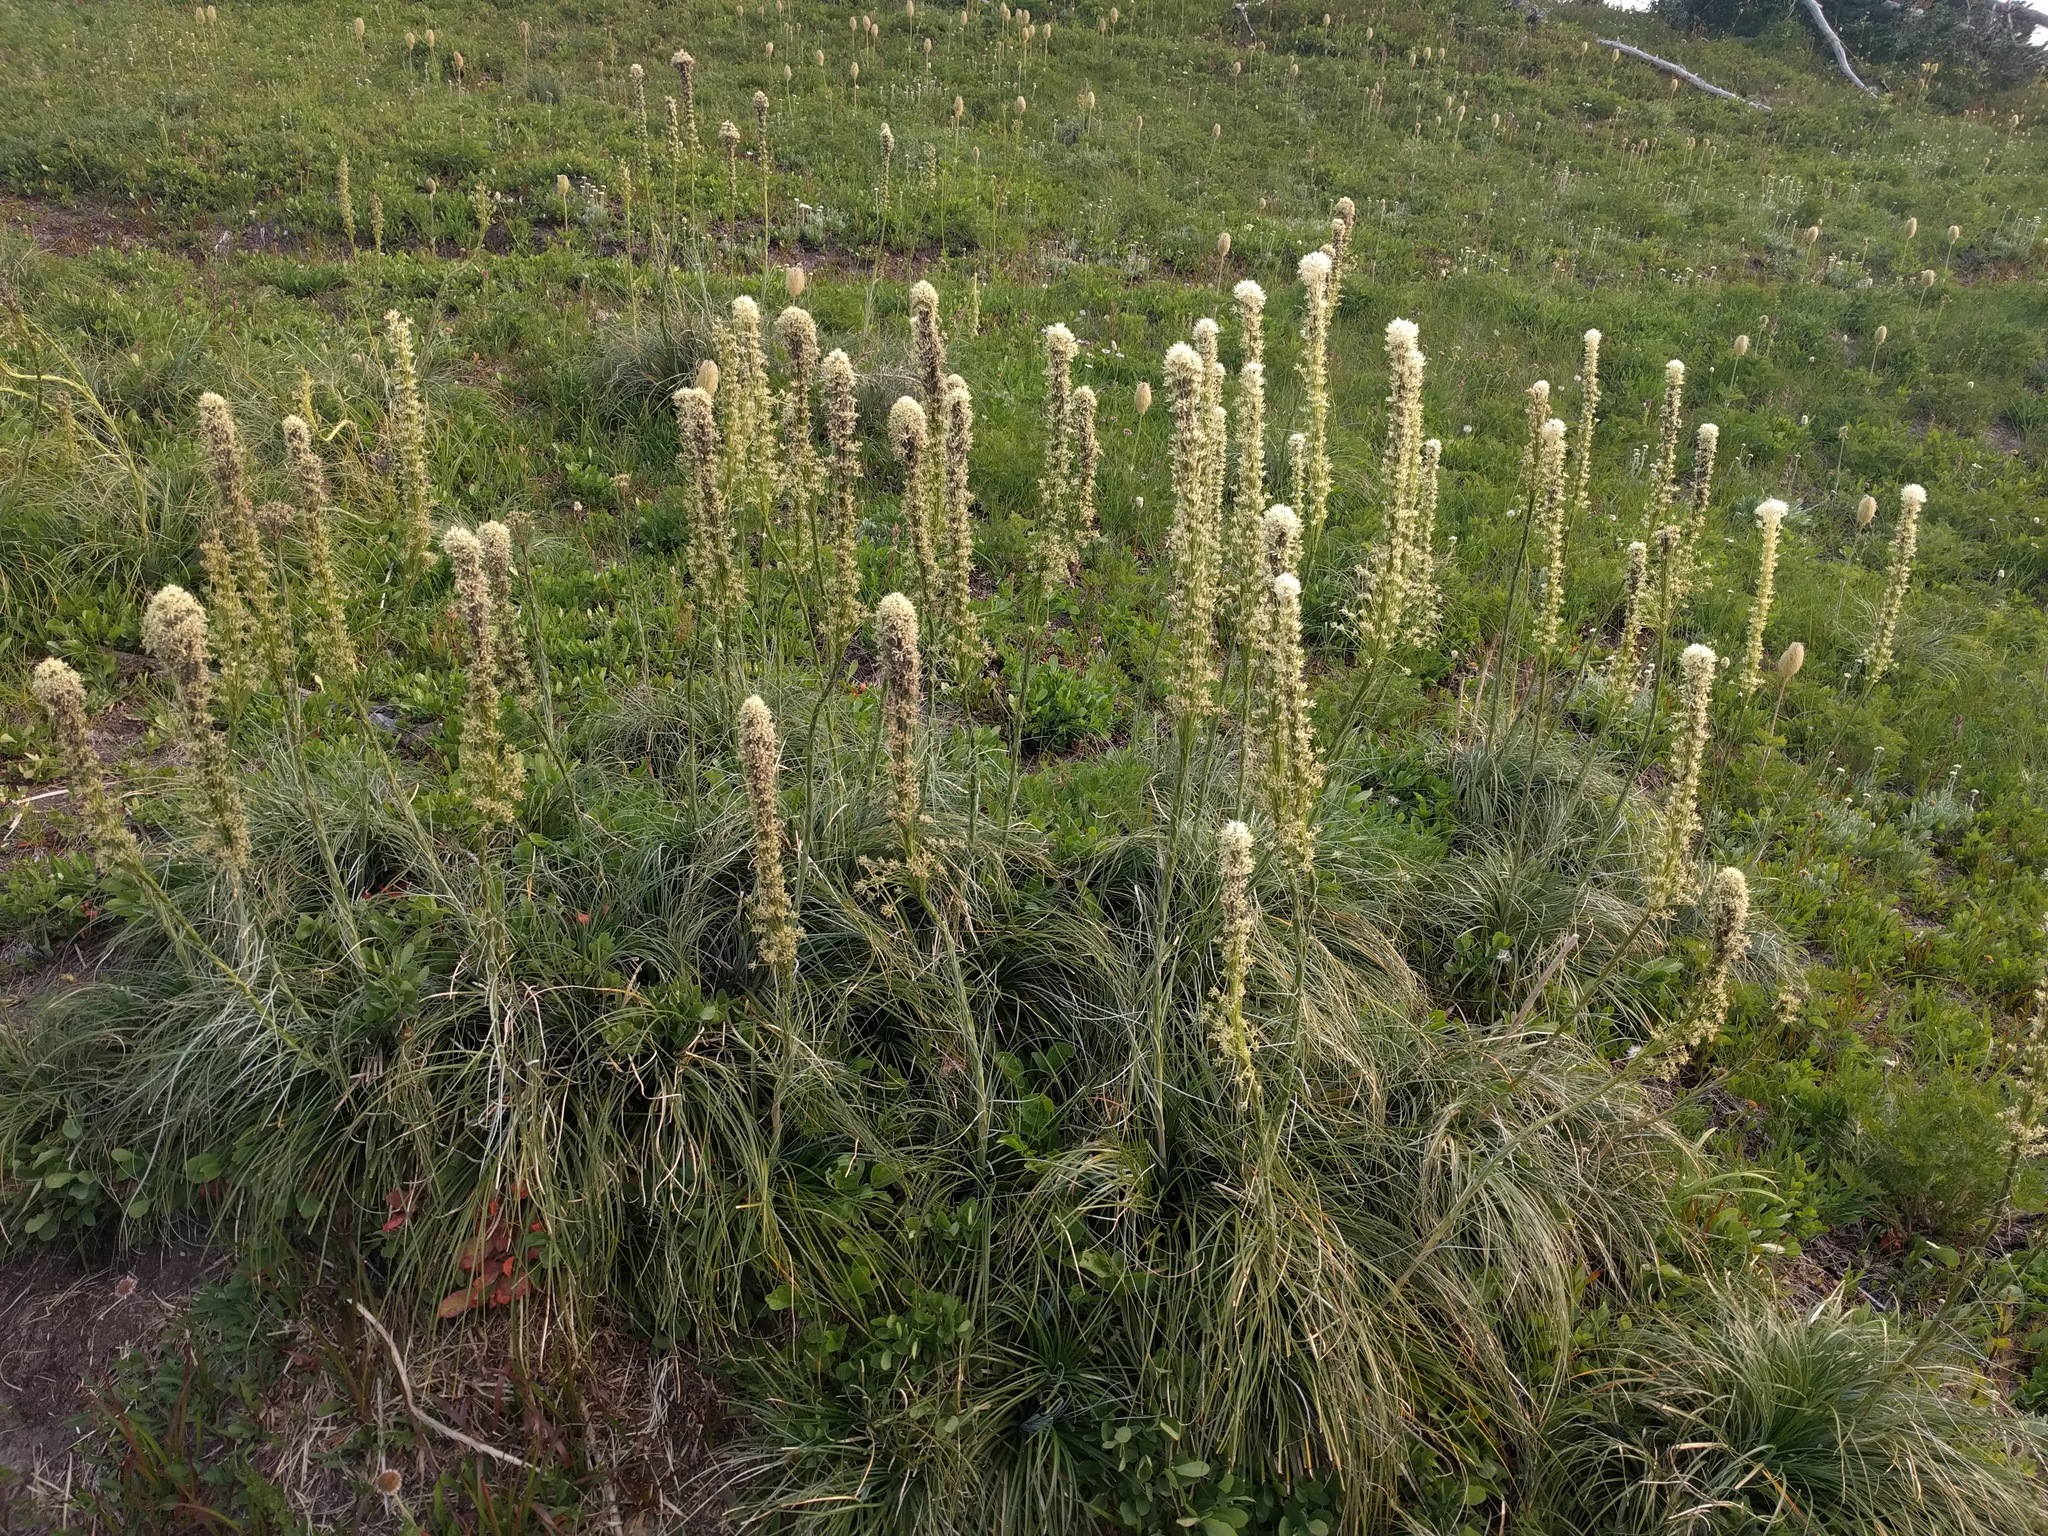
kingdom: Plantae
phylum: Tracheophyta
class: Liliopsida
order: Liliales
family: Melanthiaceae
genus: Xerophyllum
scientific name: Xerophyllum tenax
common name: Bear-grass
